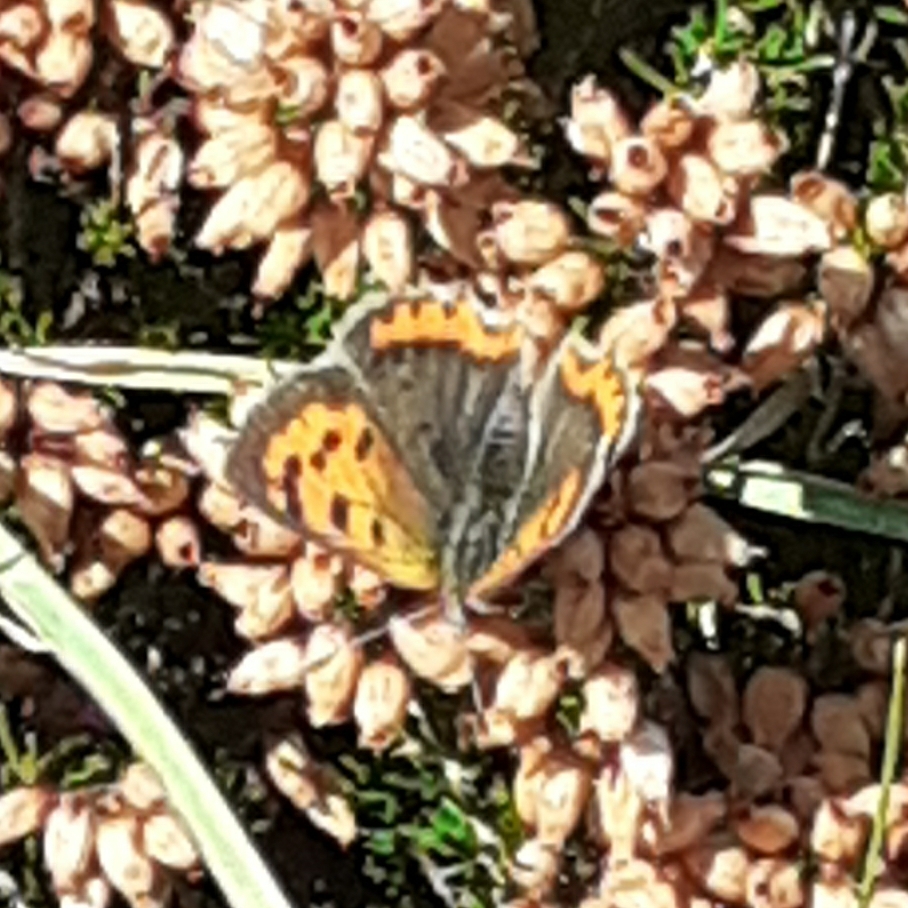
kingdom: Animalia
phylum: Arthropoda
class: Insecta
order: Lepidoptera
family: Lycaenidae
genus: Lycaena
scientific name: Lycaena phlaeas
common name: Small copper
